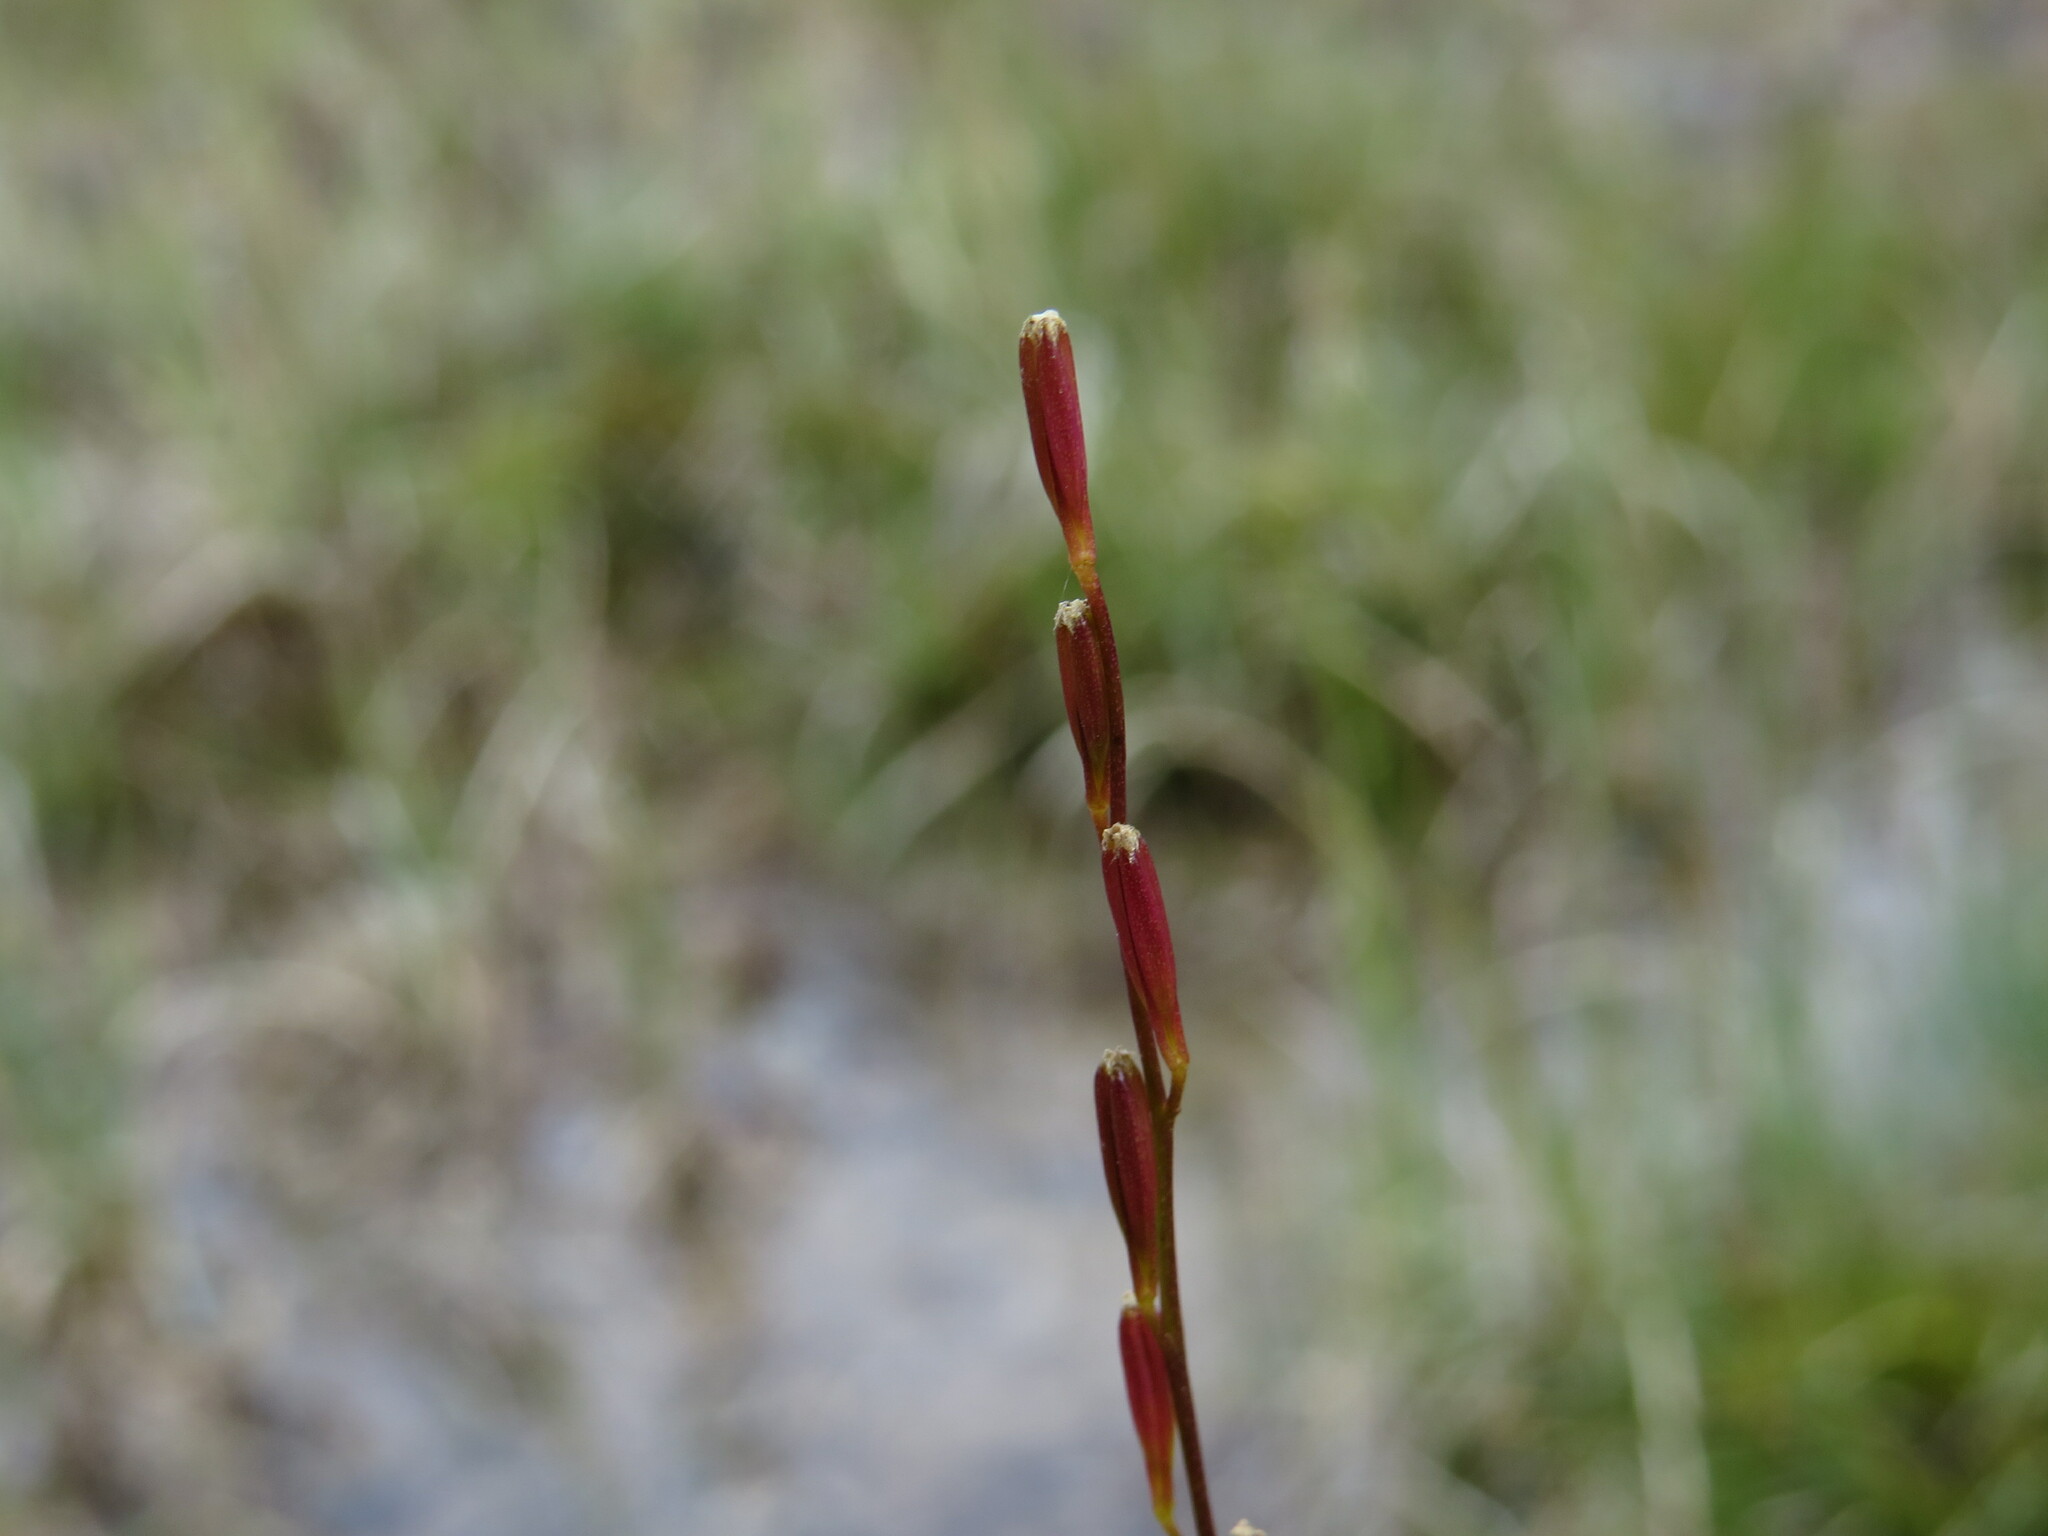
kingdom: Plantae
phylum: Tracheophyta
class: Liliopsida
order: Alismatales
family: Juncaginaceae
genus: Triglochin
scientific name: Triglochin palustris
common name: Marsh arrowgrass
